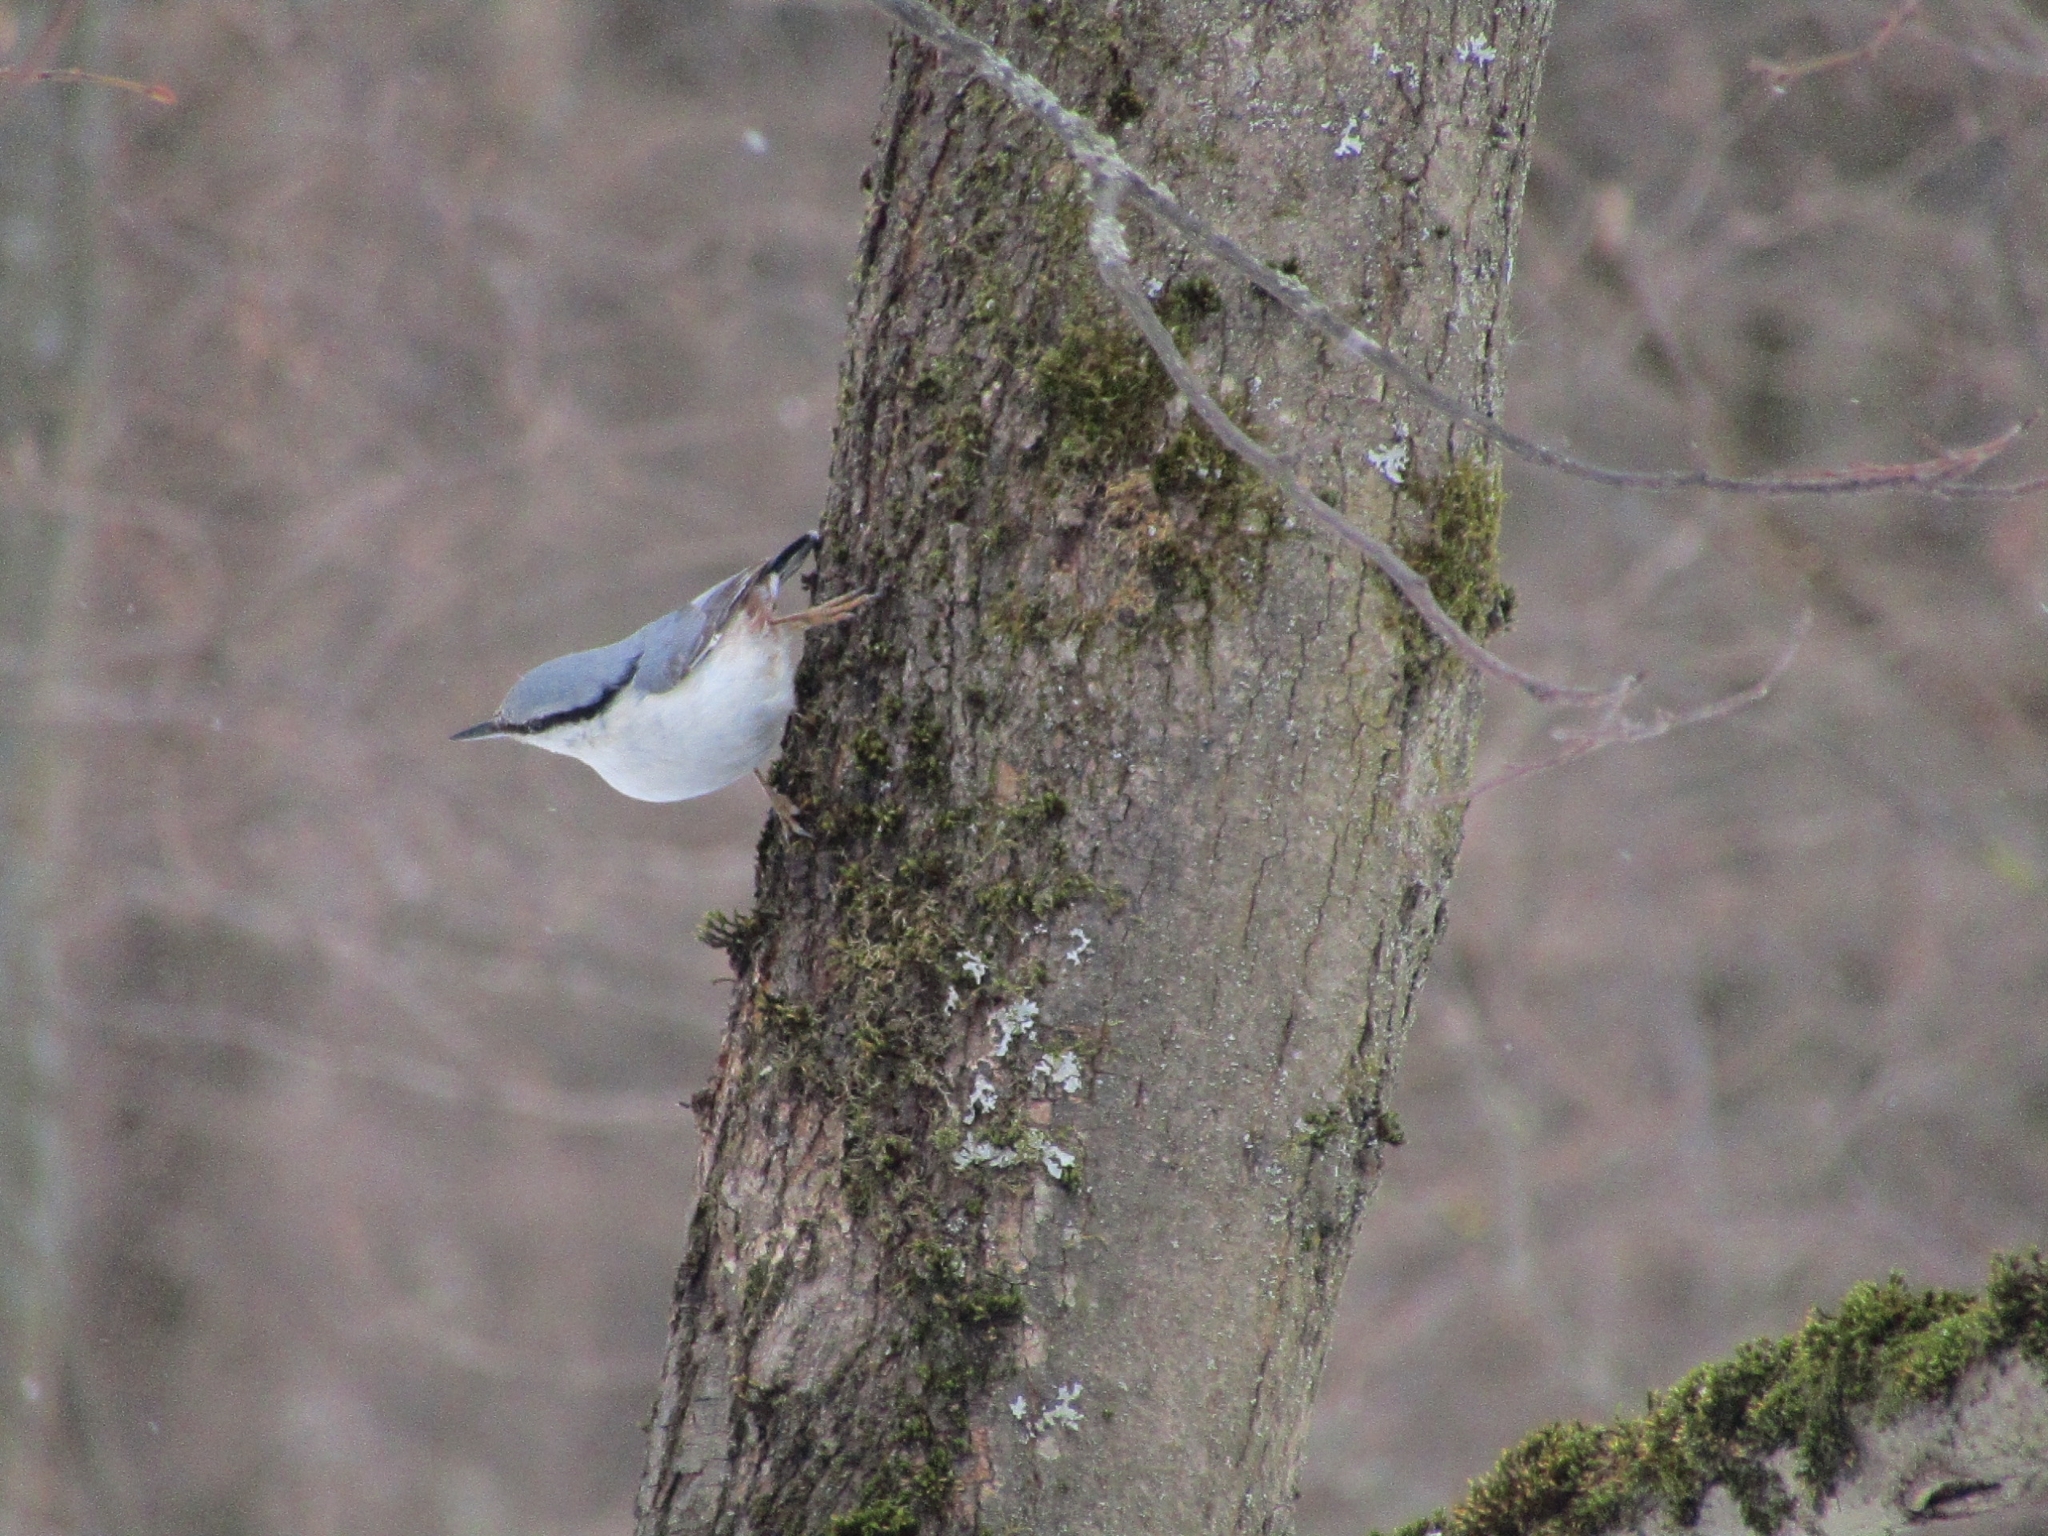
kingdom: Animalia
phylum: Chordata
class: Aves
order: Passeriformes
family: Sittidae
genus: Sitta
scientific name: Sitta europaea
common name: Eurasian nuthatch
